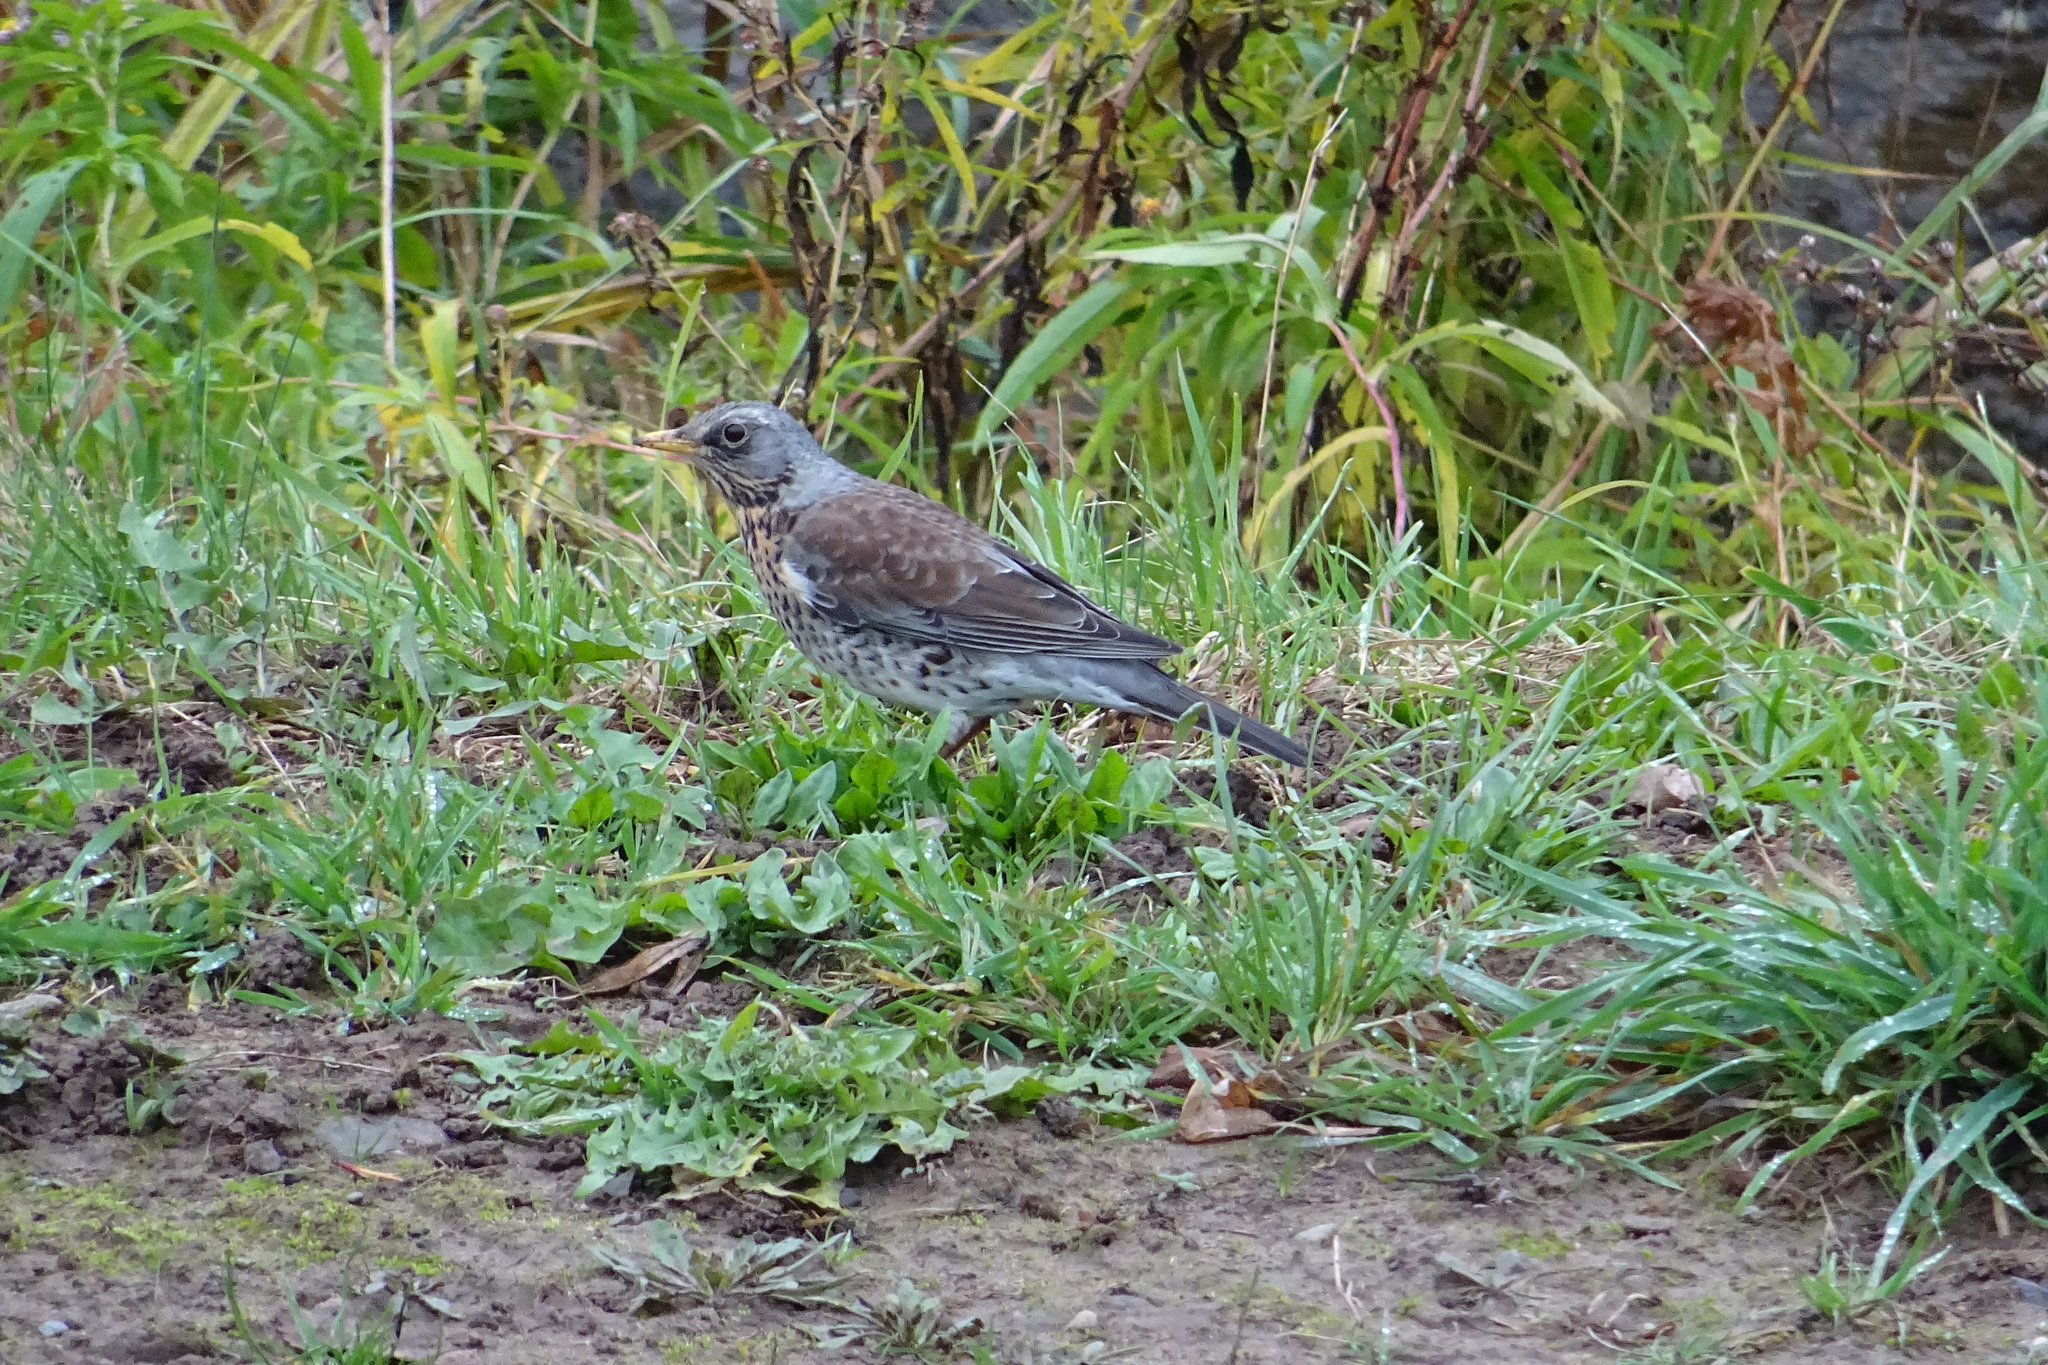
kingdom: Animalia
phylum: Chordata
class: Aves
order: Passeriformes
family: Turdidae
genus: Turdus
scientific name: Turdus pilaris
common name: Fieldfare
